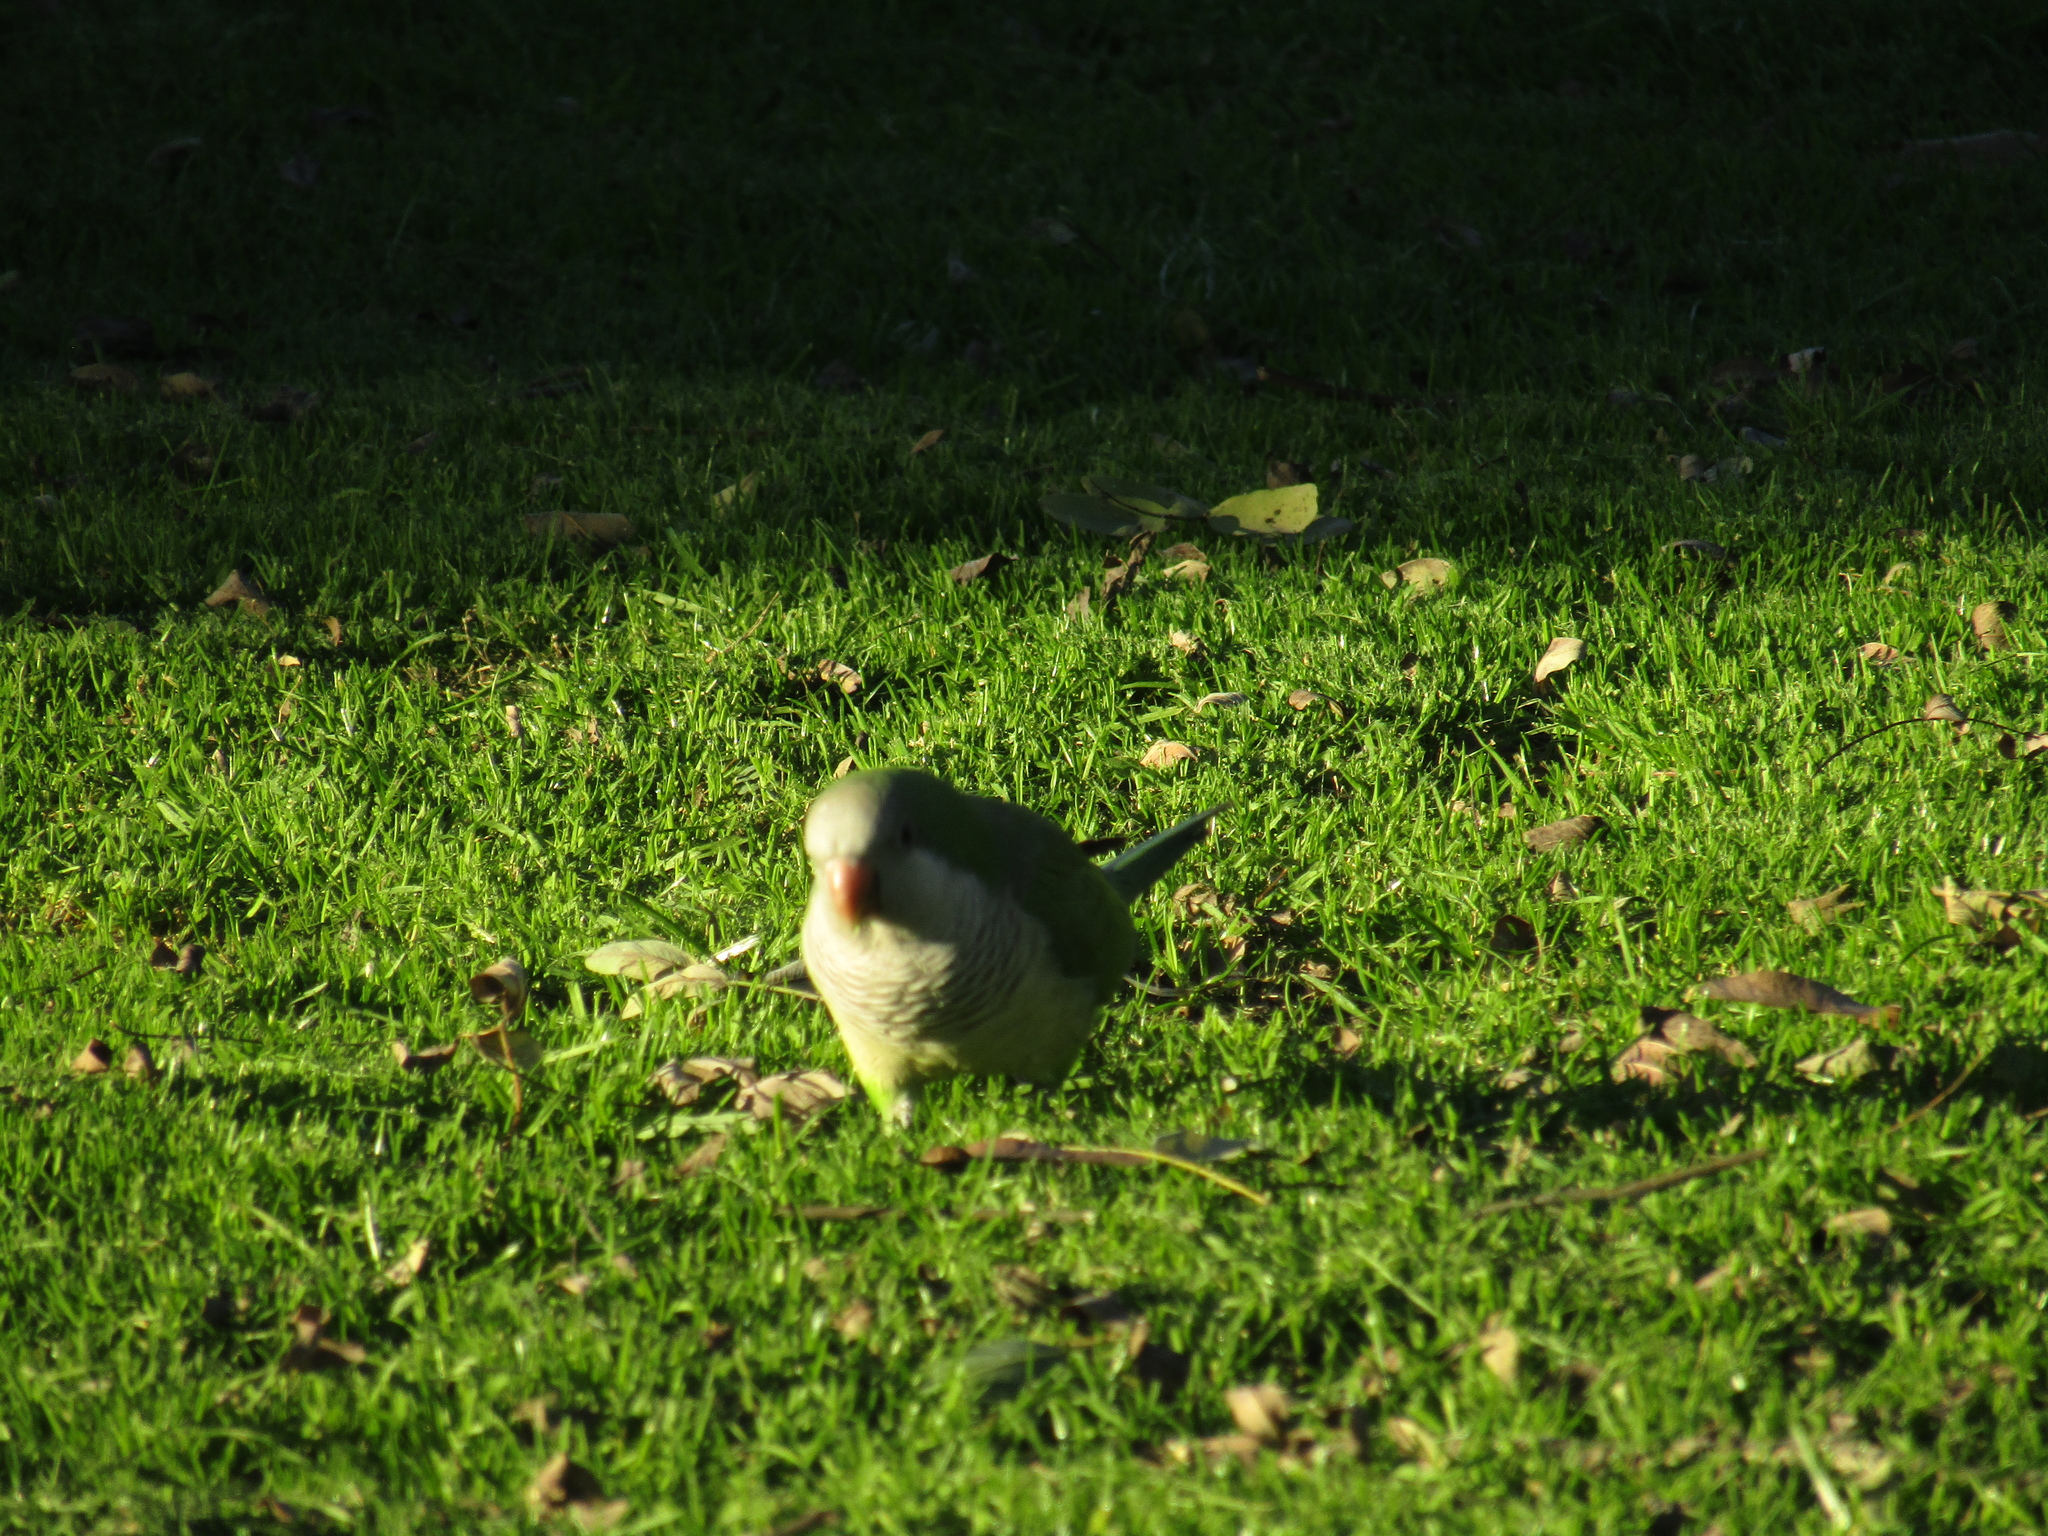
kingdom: Animalia
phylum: Chordata
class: Aves
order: Psittaciformes
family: Psittacidae
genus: Myiopsitta
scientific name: Myiopsitta monachus
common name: Monk parakeet
